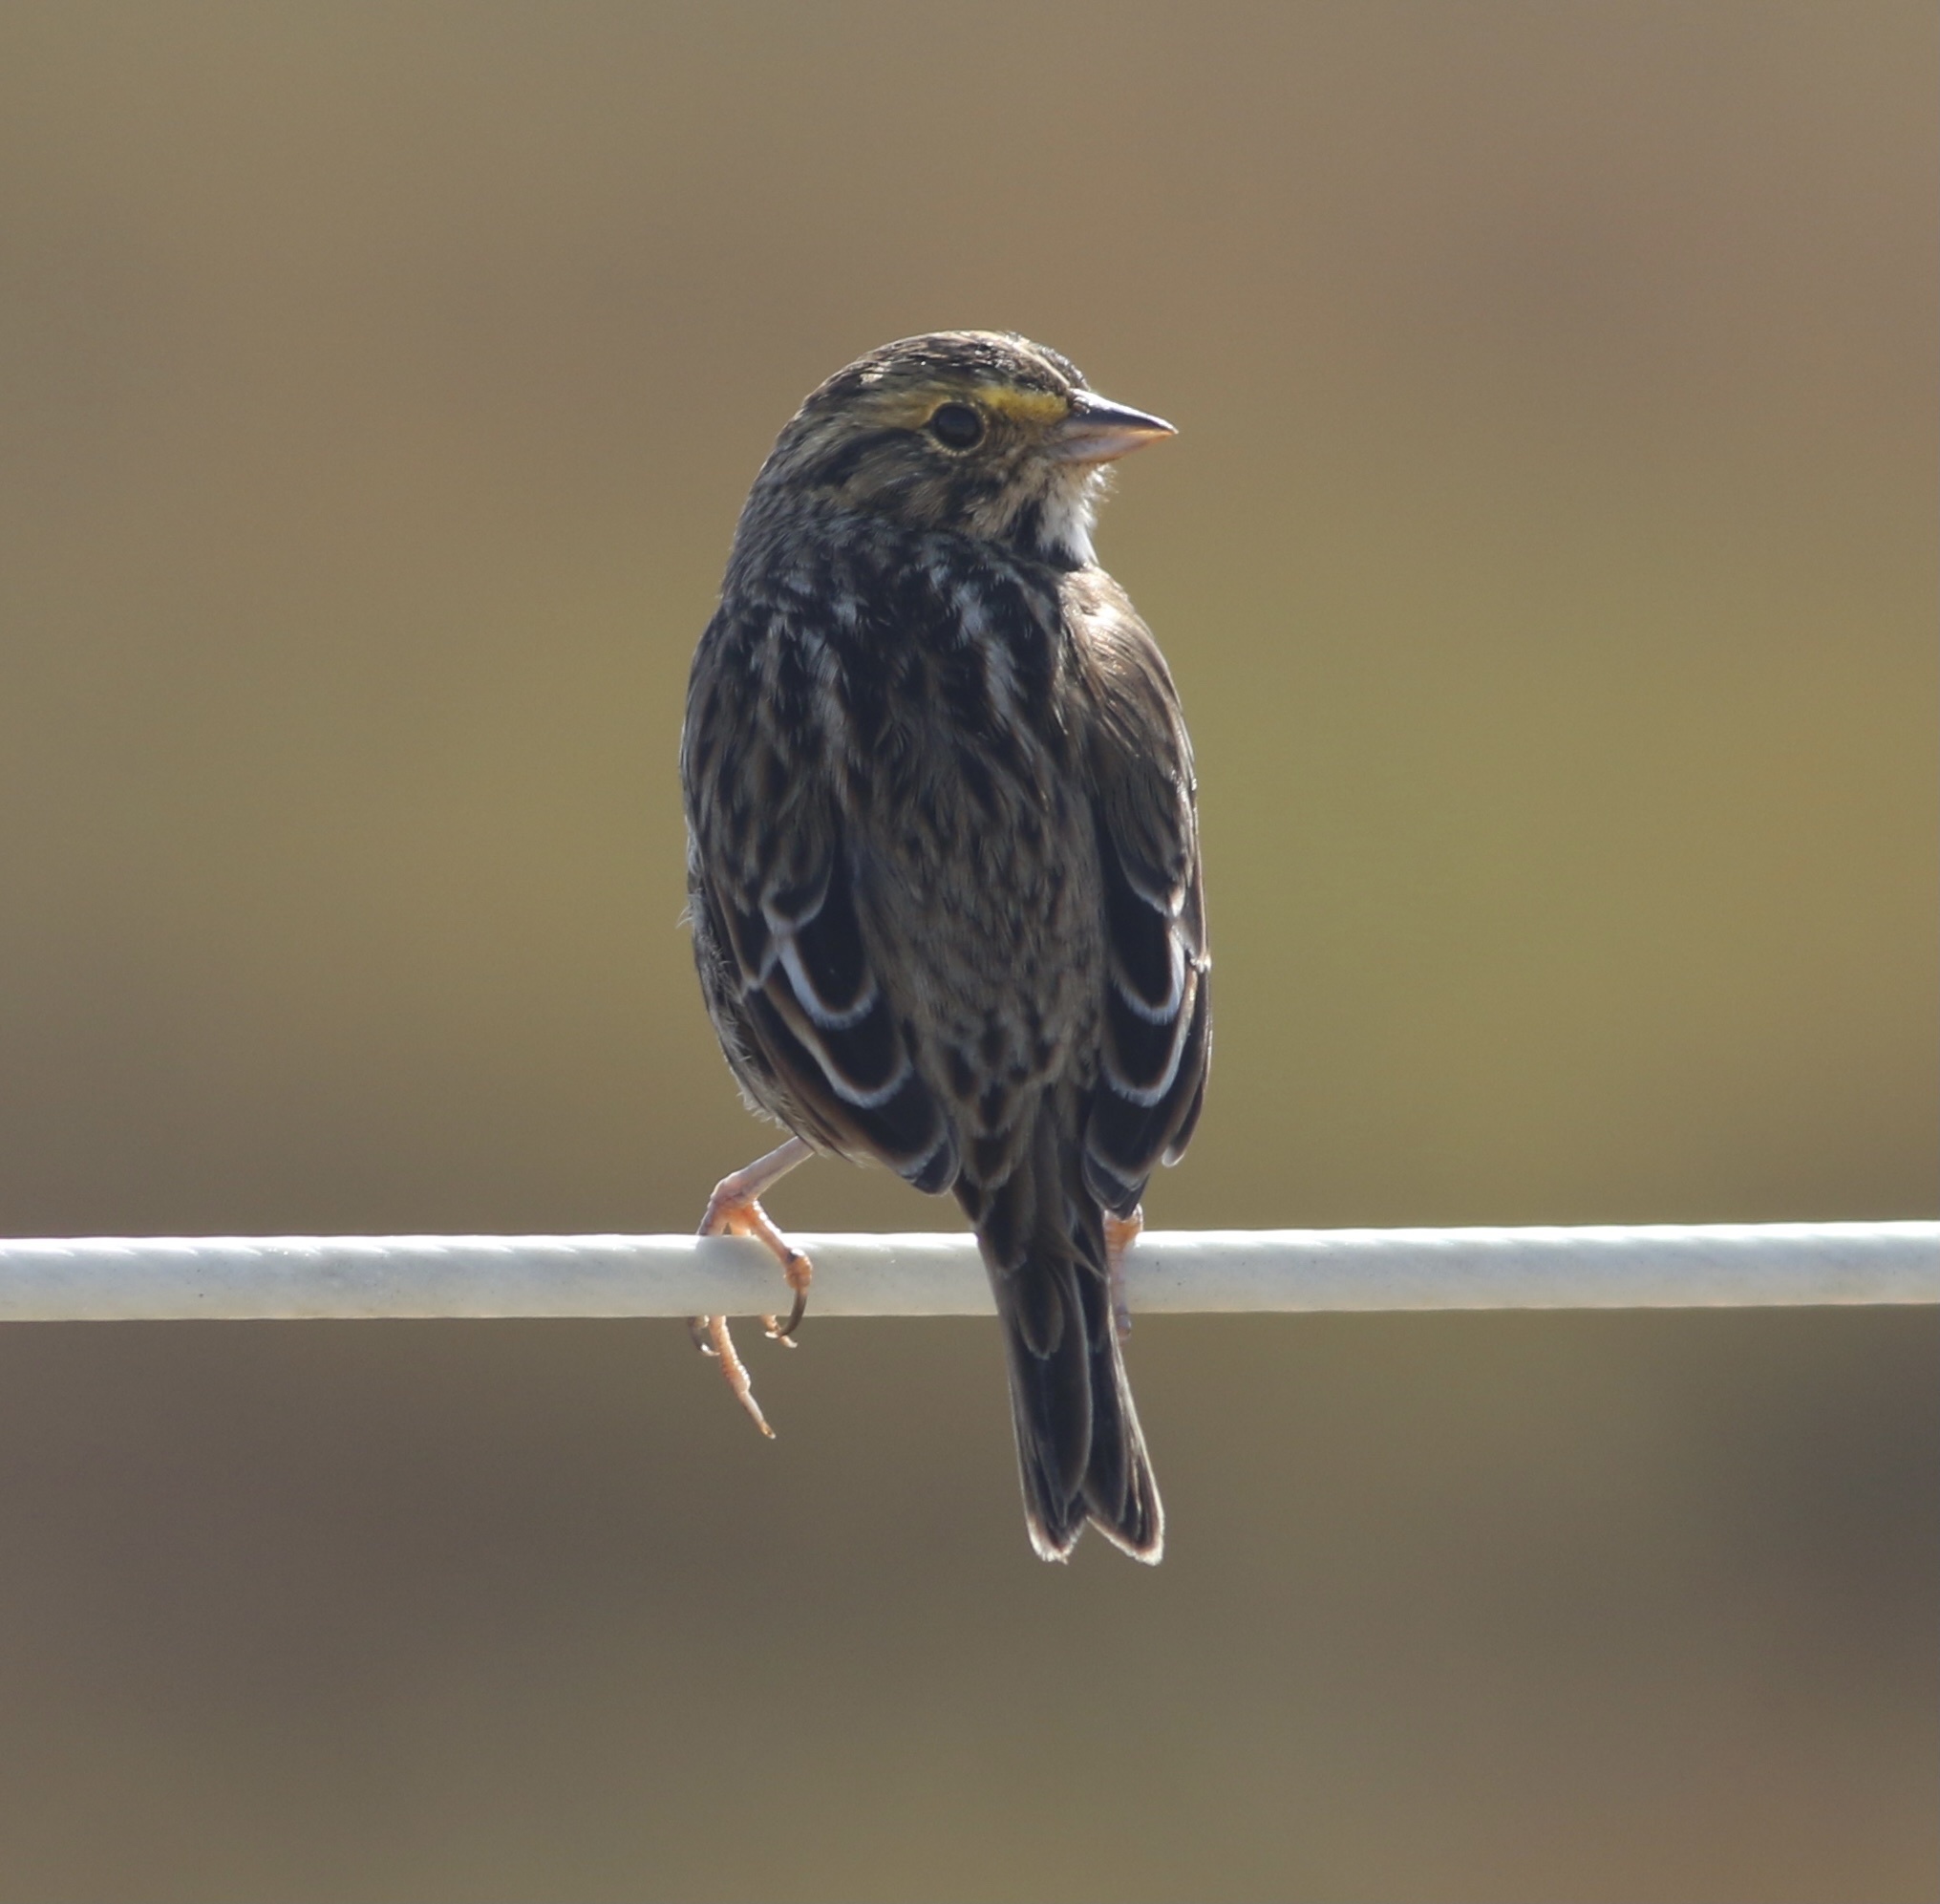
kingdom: Animalia
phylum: Chordata
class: Aves
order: Passeriformes
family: Passerellidae
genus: Passerculus
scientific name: Passerculus sandwichensis
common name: Savannah sparrow
